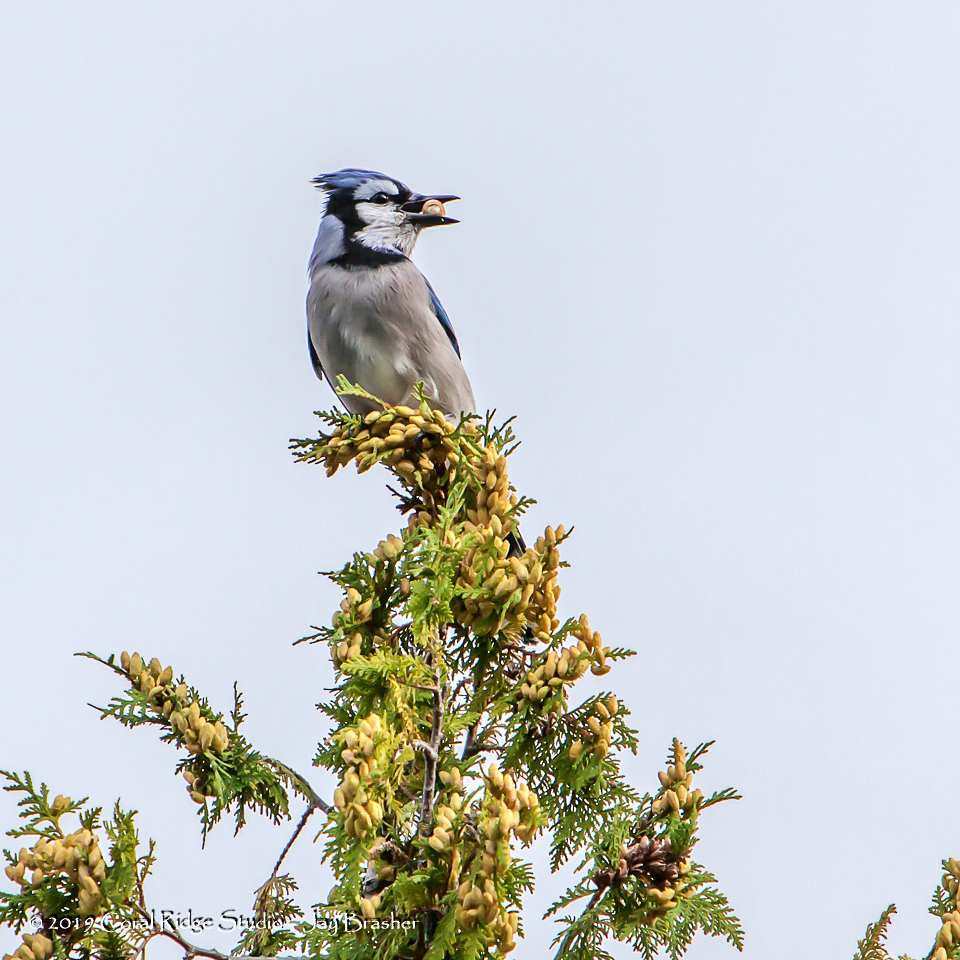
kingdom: Animalia
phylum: Chordata
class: Aves
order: Passeriformes
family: Corvidae
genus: Cyanocitta
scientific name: Cyanocitta cristata
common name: Blue jay
